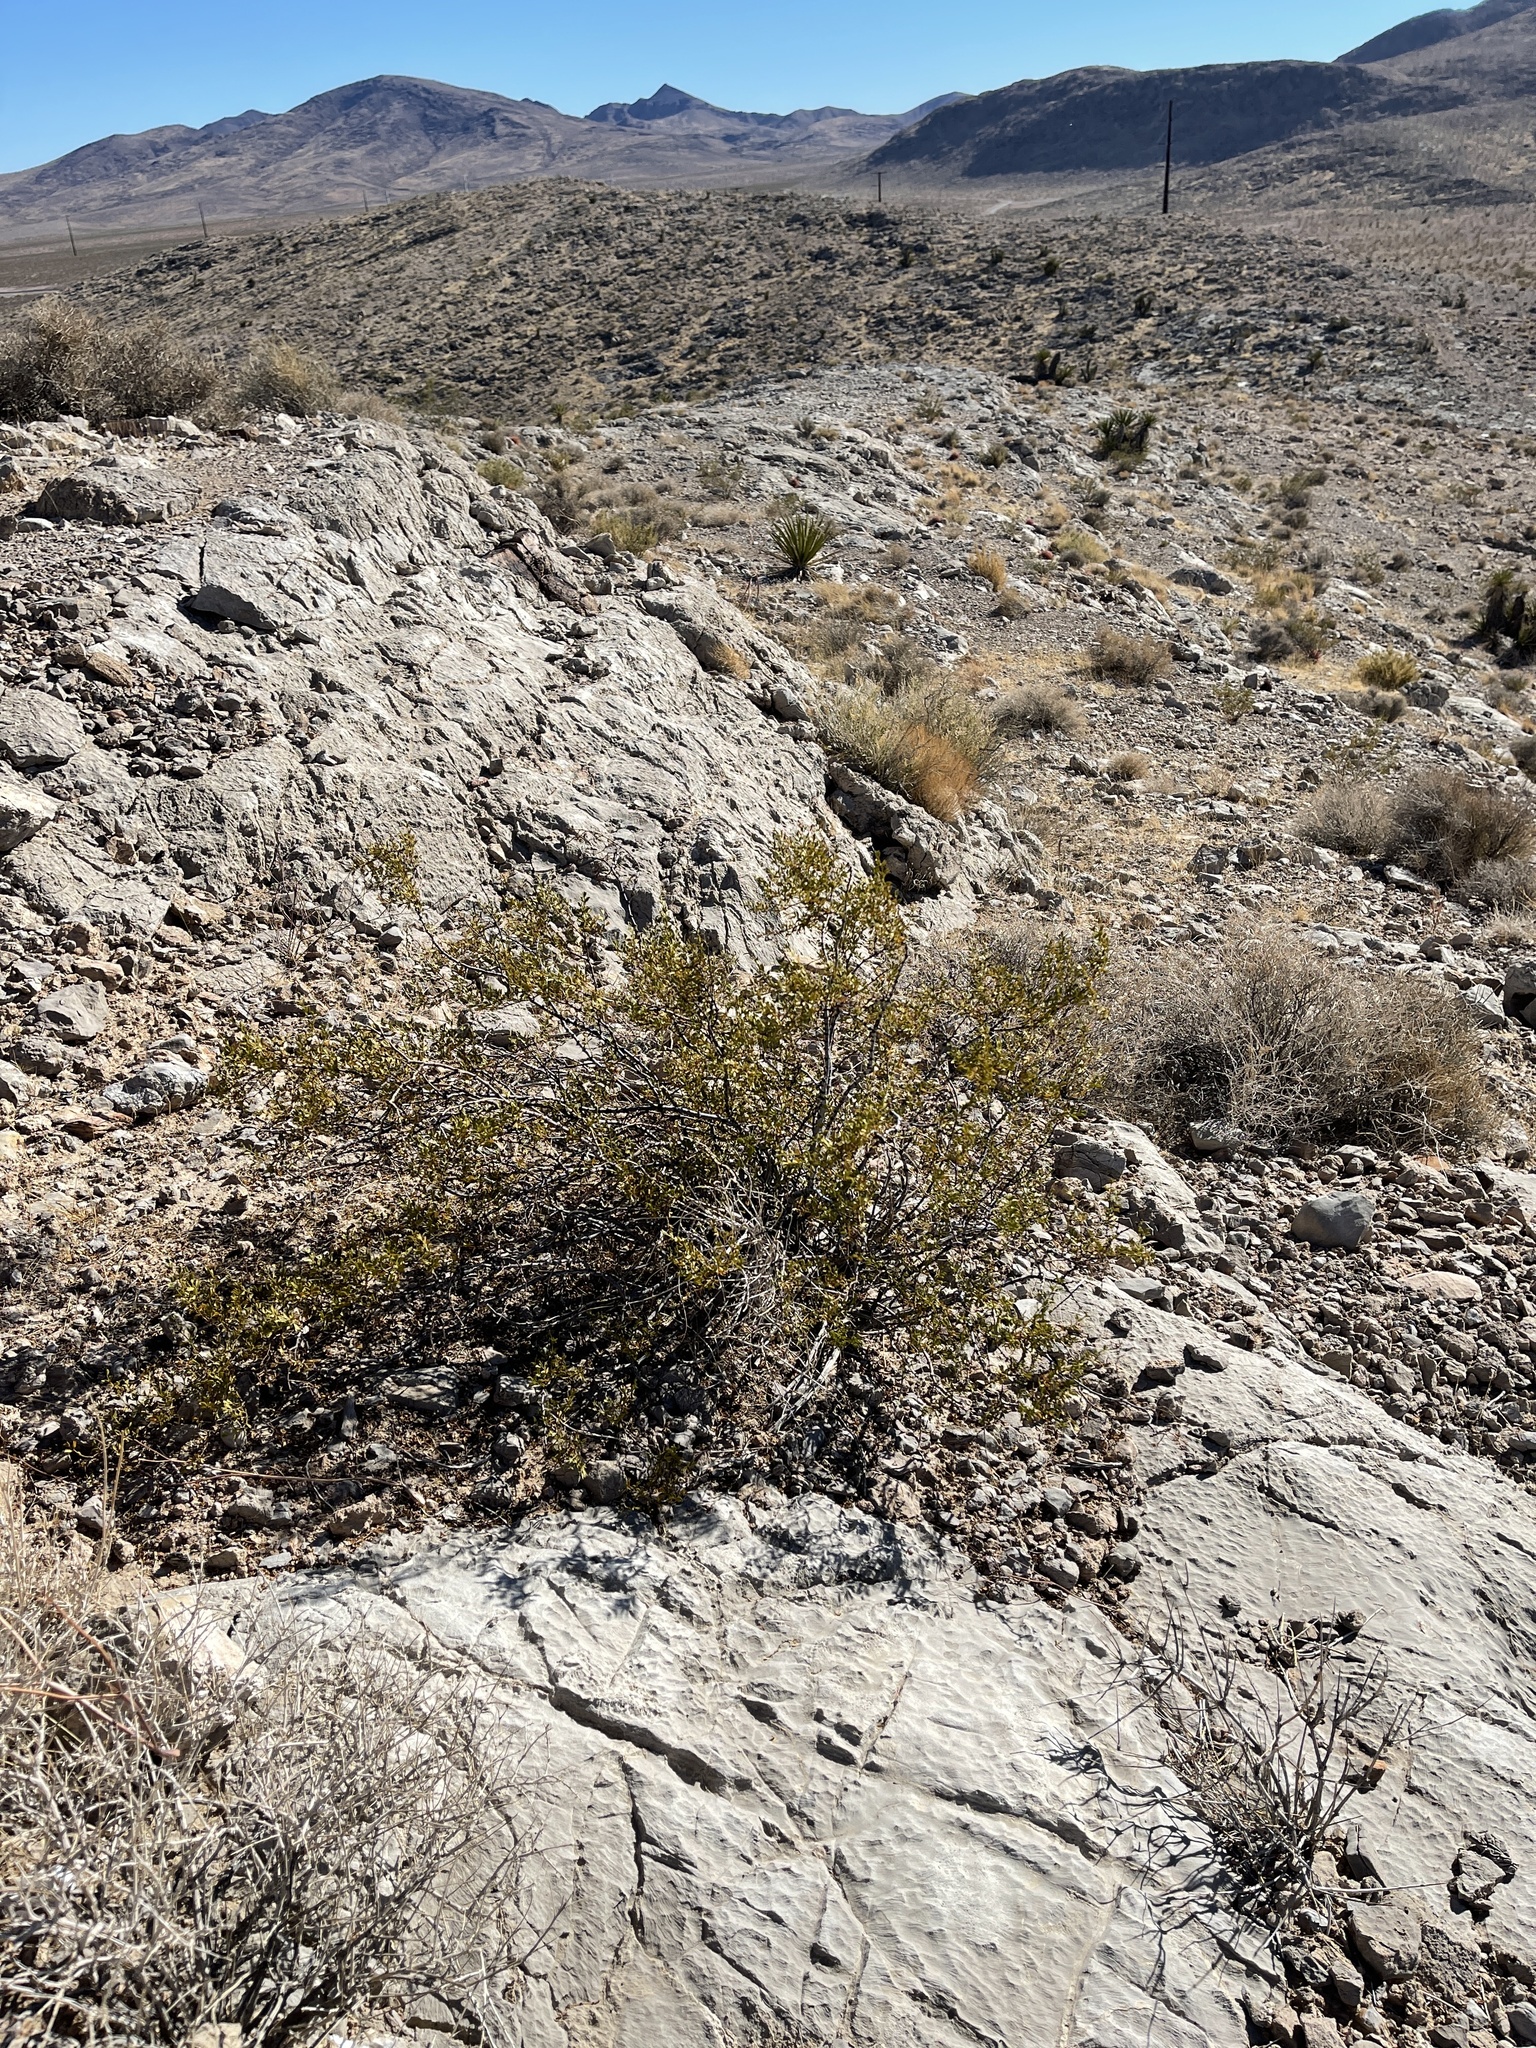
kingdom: Plantae
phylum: Tracheophyta
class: Magnoliopsida
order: Zygophyllales
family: Zygophyllaceae
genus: Larrea
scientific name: Larrea tridentata
